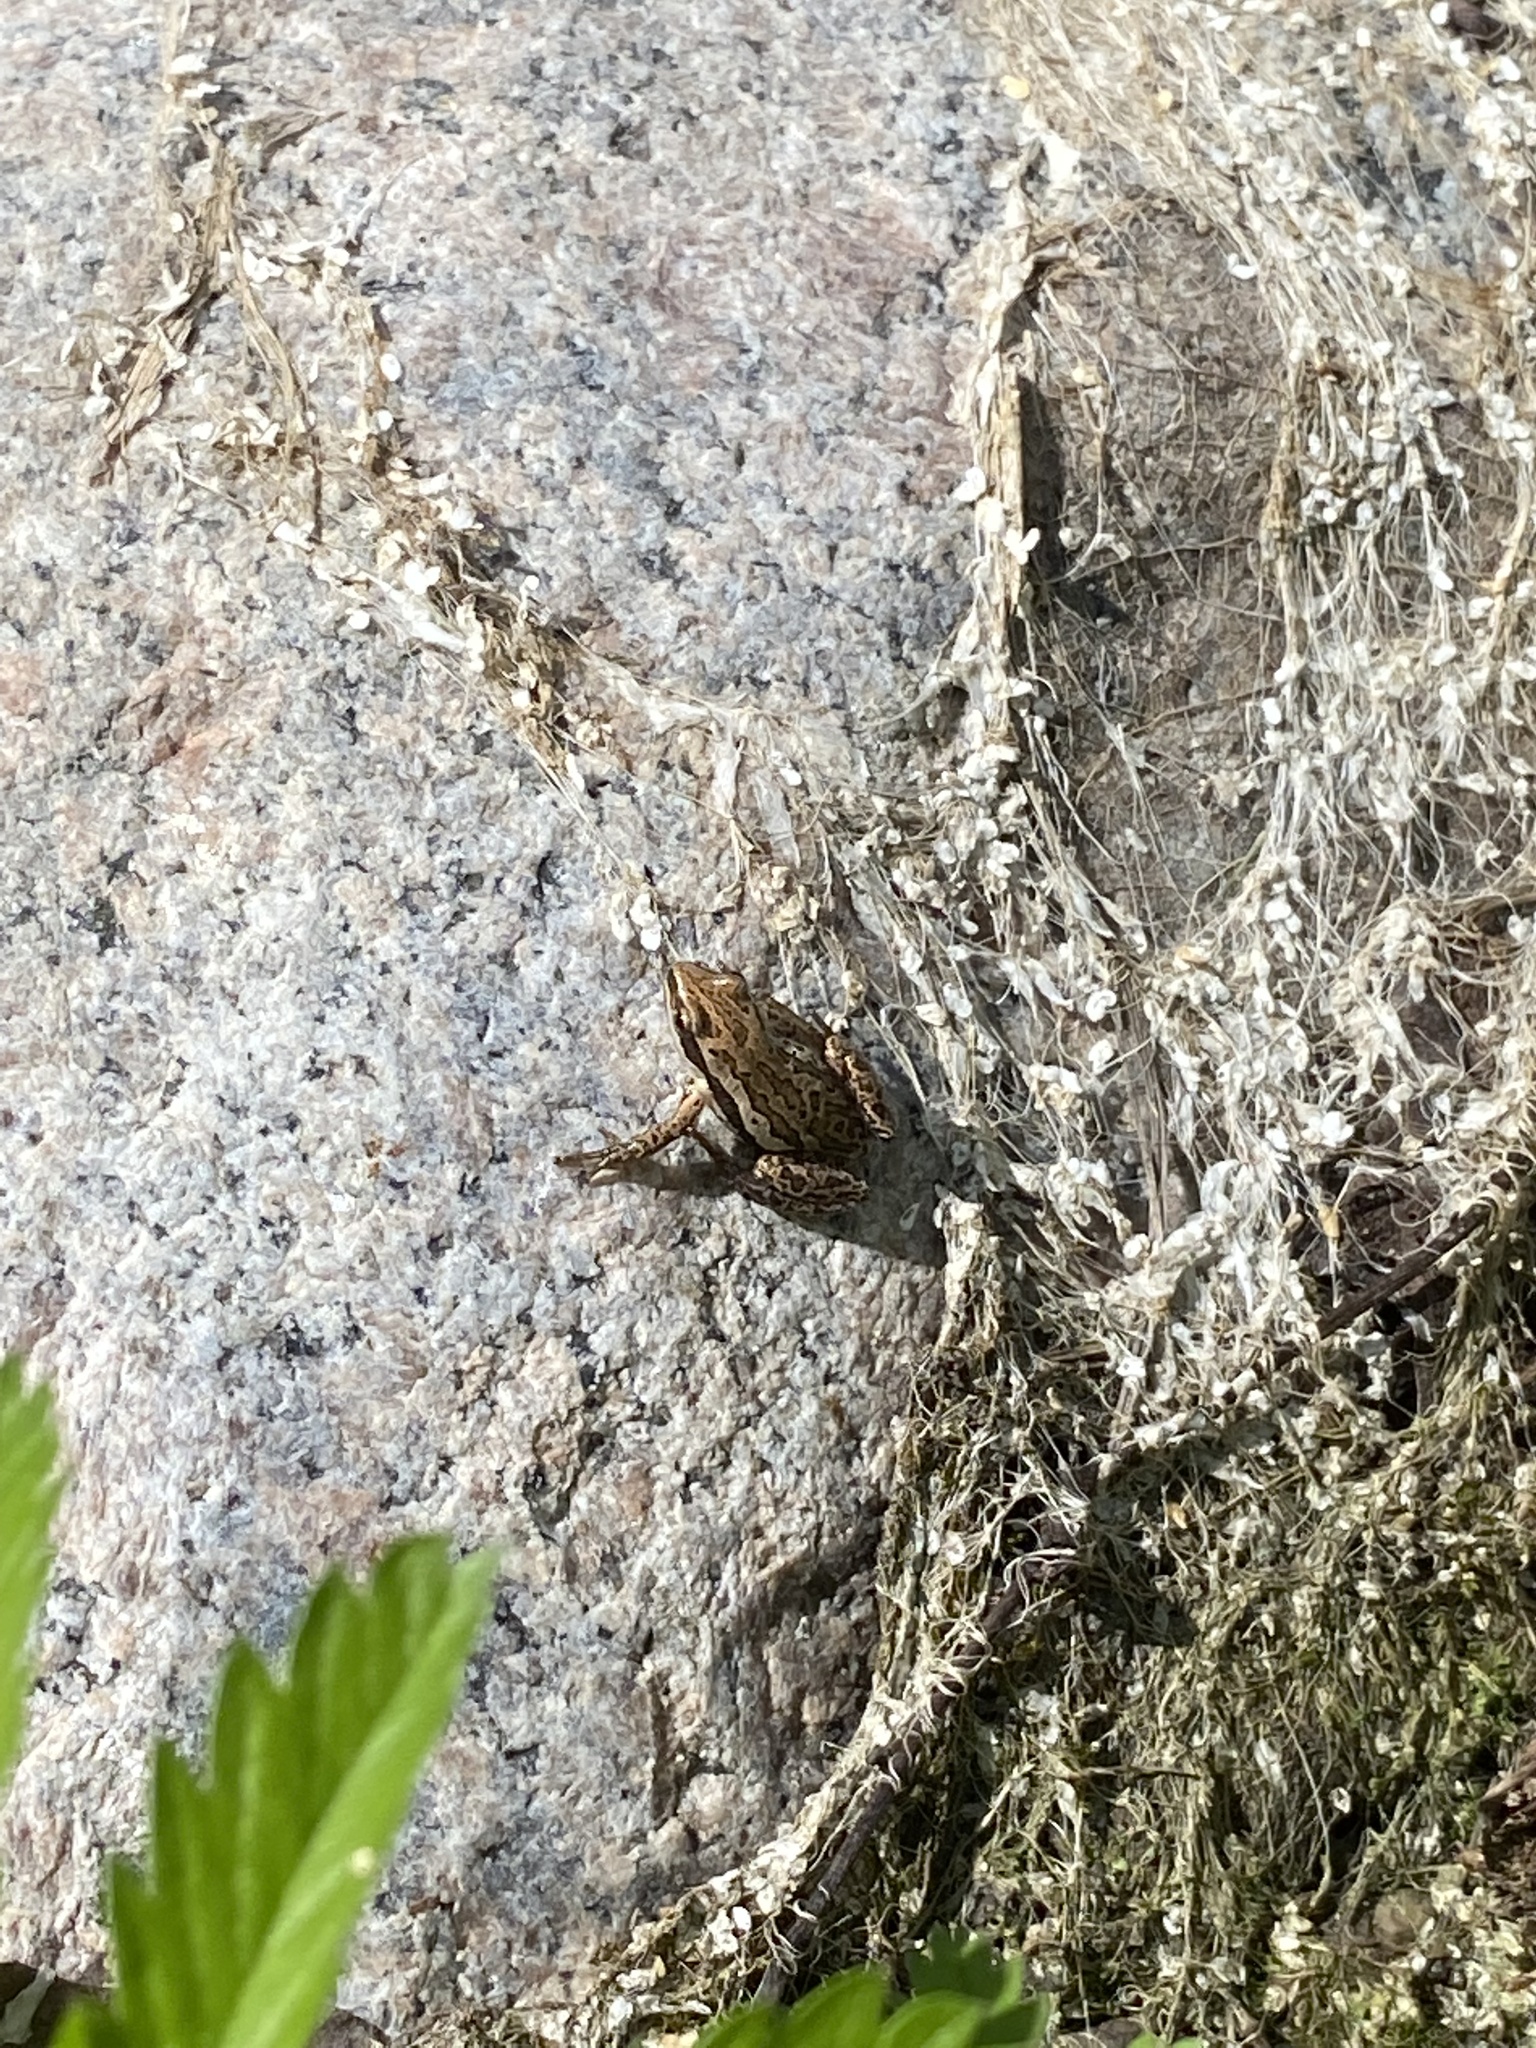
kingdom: Animalia
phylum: Chordata
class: Amphibia
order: Anura
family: Hylidae
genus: Pseudacris
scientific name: Pseudacris maculata
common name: Boreal chorus frog
